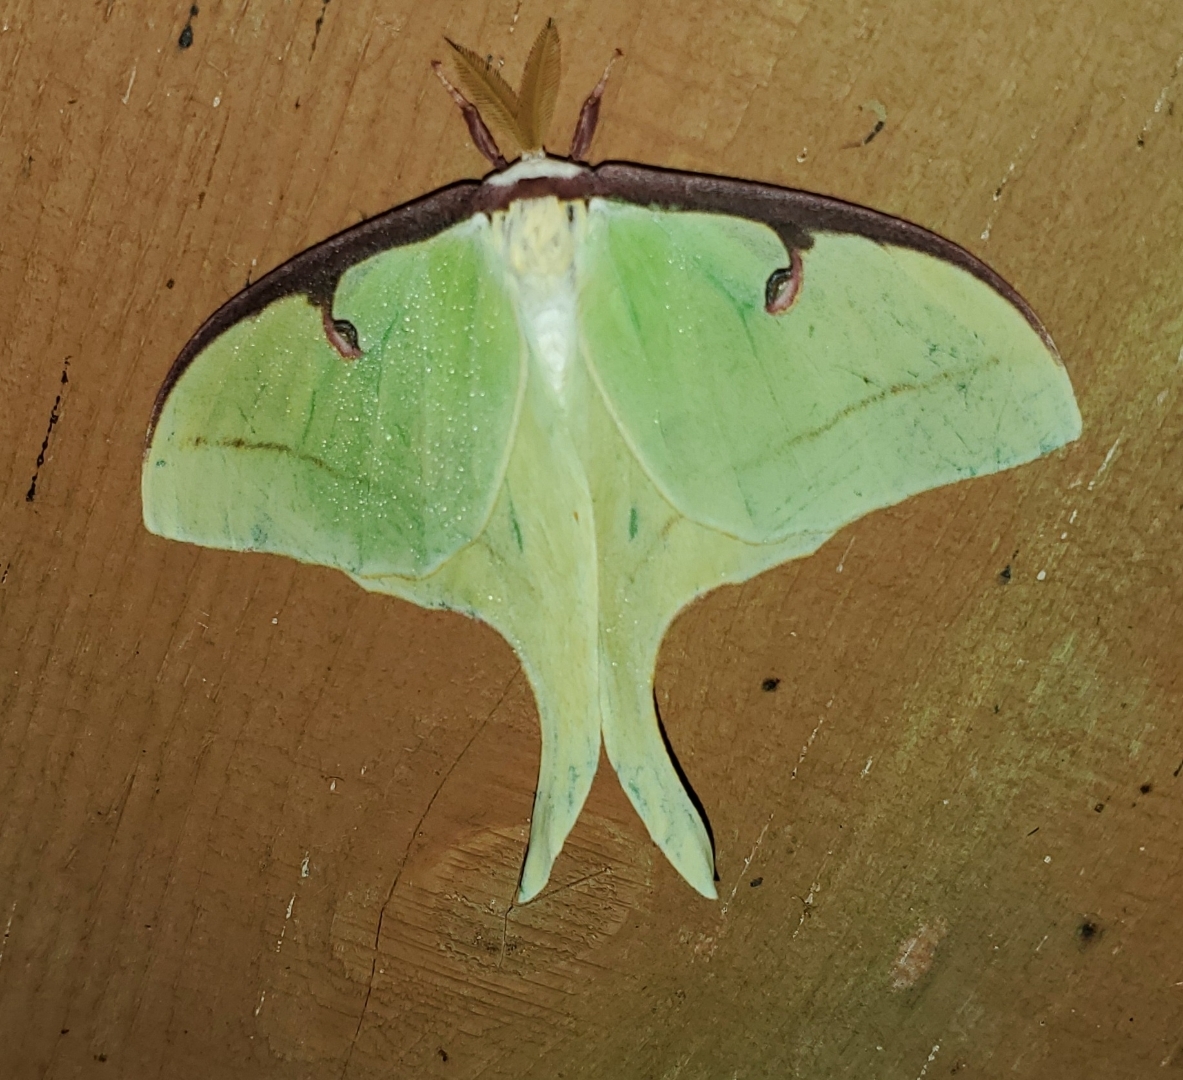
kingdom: Animalia
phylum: Arthropoda
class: Insecta
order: Lepidoptera
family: Saturniidae
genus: Actias
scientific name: Actias luna
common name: Luna moth
